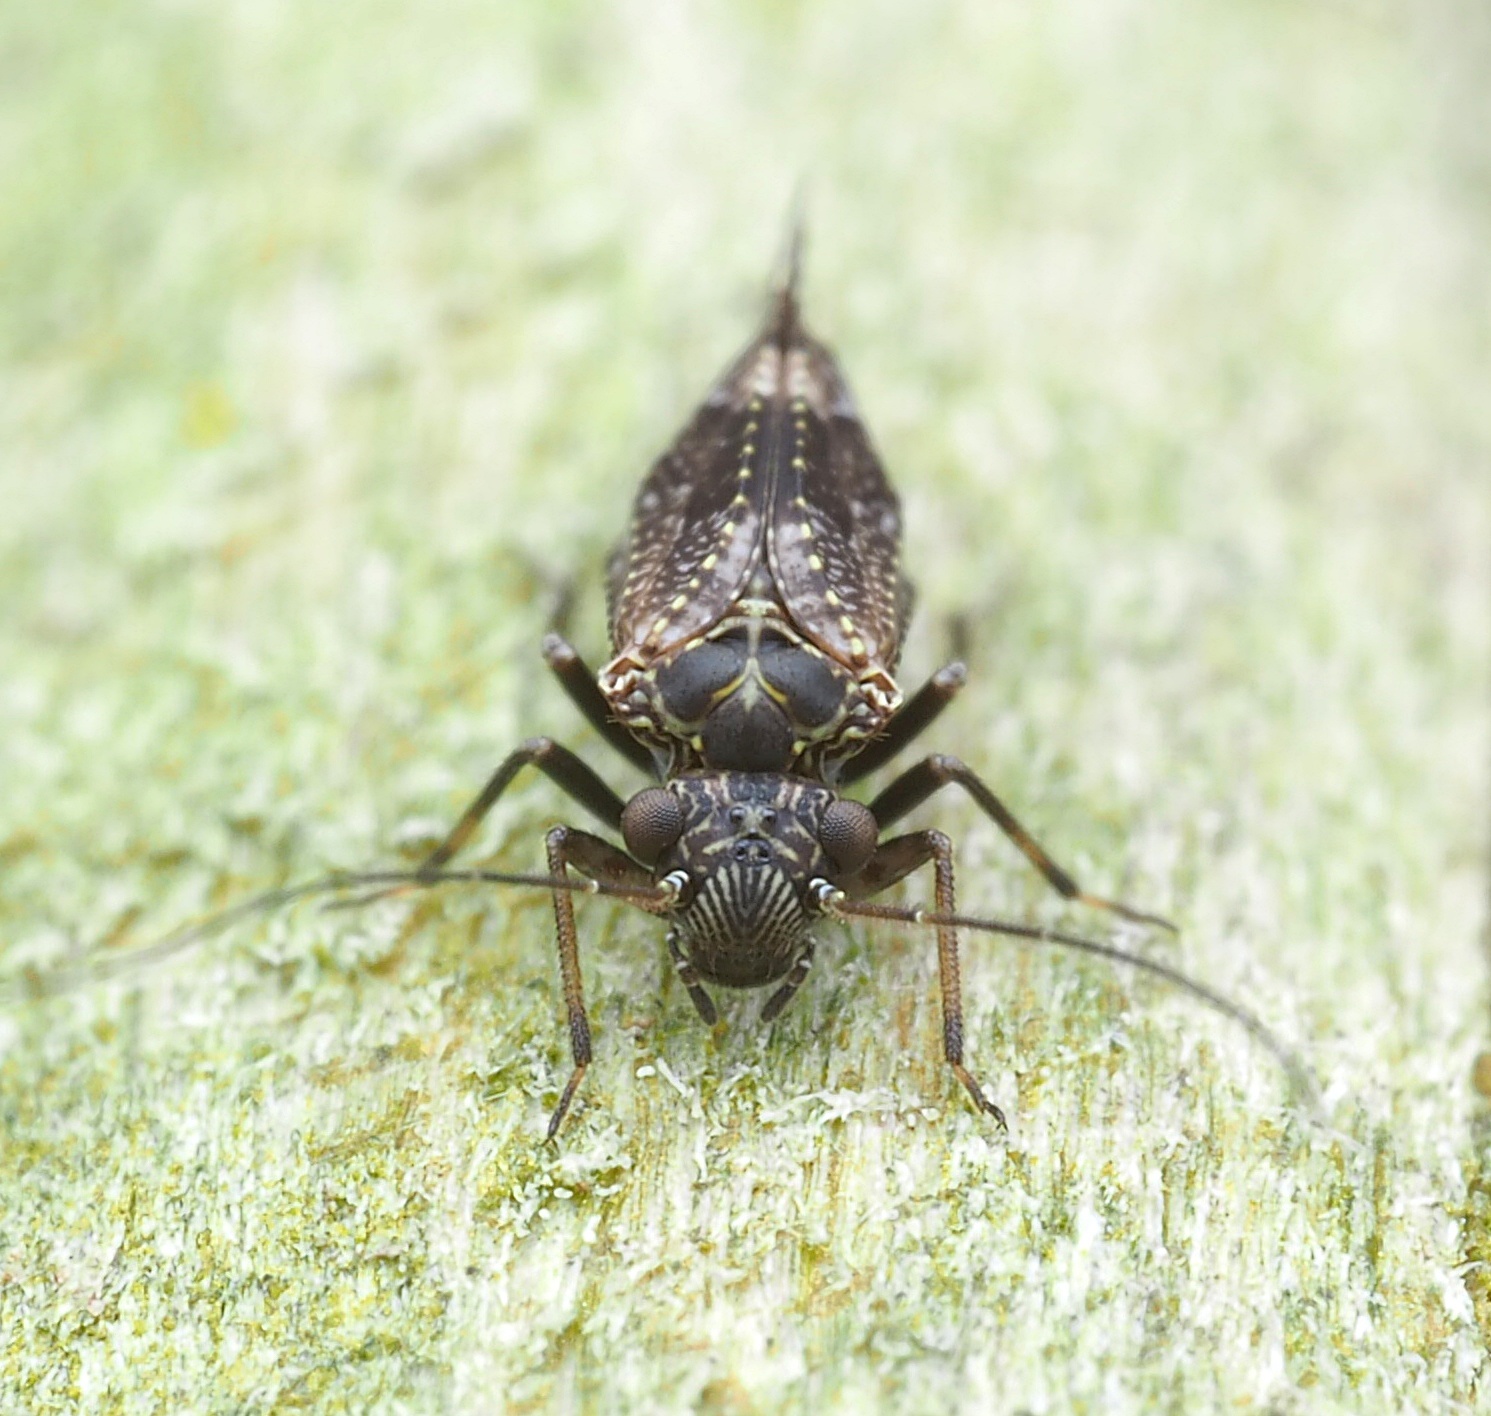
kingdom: Animalia
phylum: Arthropoda
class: Insecta
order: Psocodea
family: Myopsocidae
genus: Nimbopsocus
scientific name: Nimbopsocus australis
